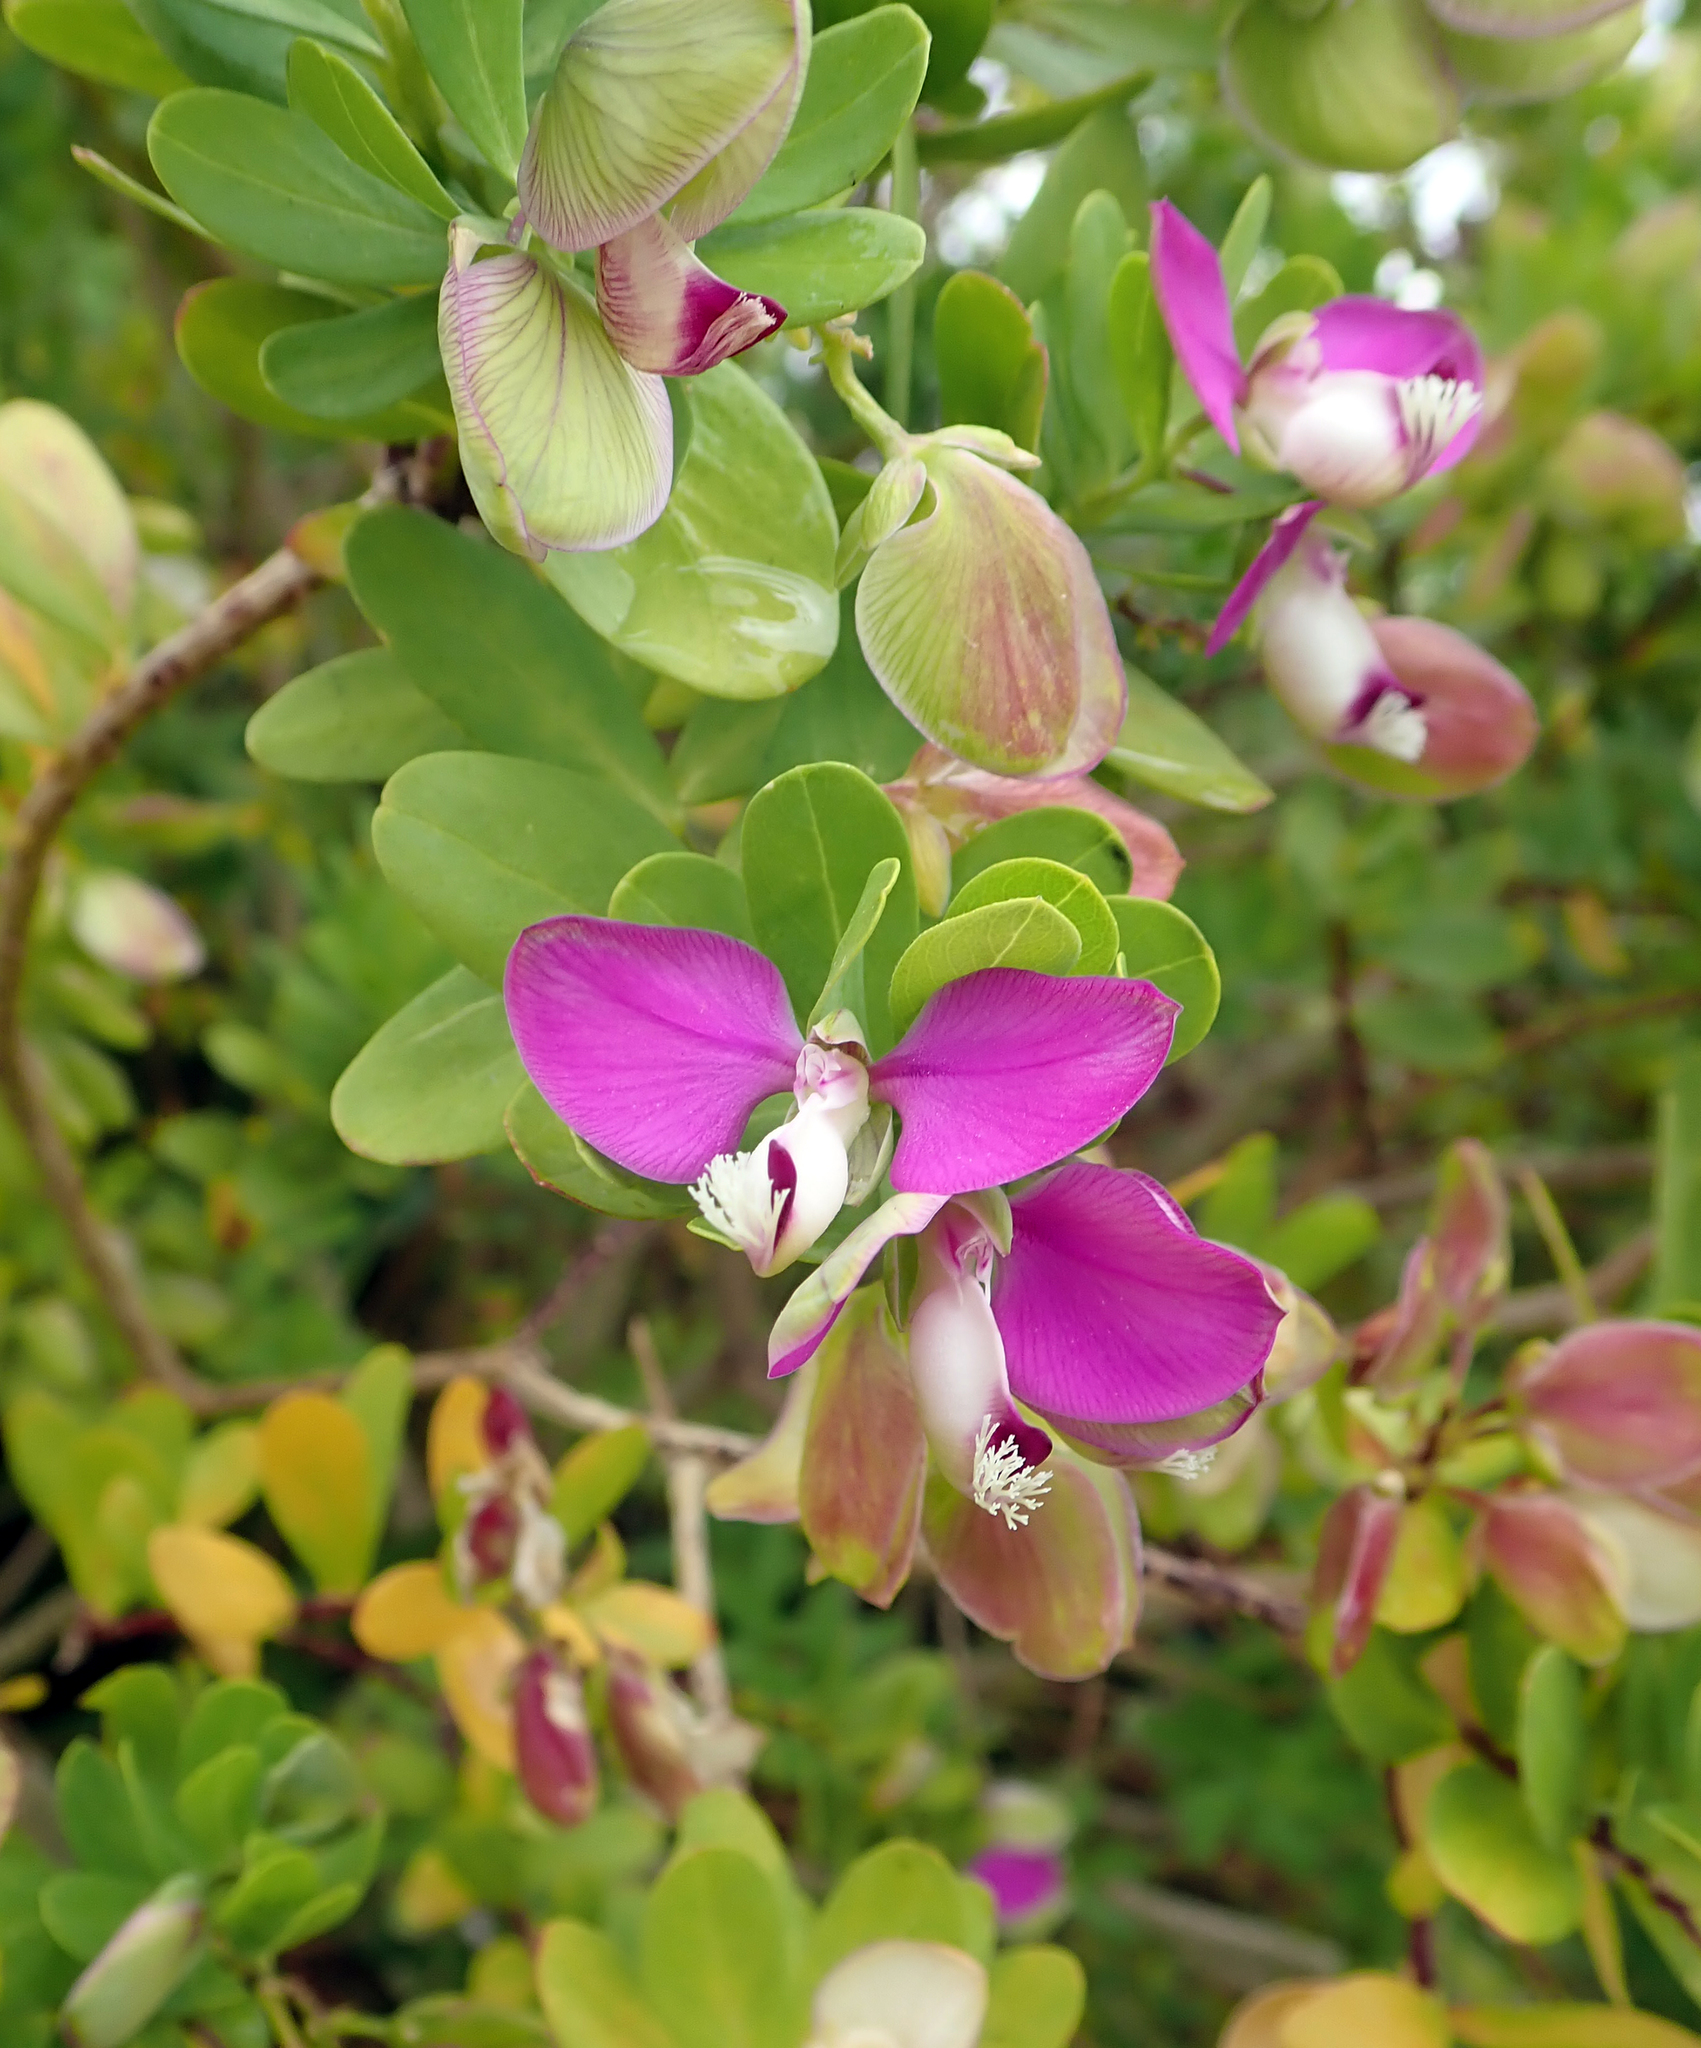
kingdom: Plantae
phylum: Tracheophyta
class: Magnoliopsida
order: Fabales
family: Polygalaceae
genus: Polygala
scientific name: Polygala myrtifolia
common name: Myrtle-leaf milkwort
